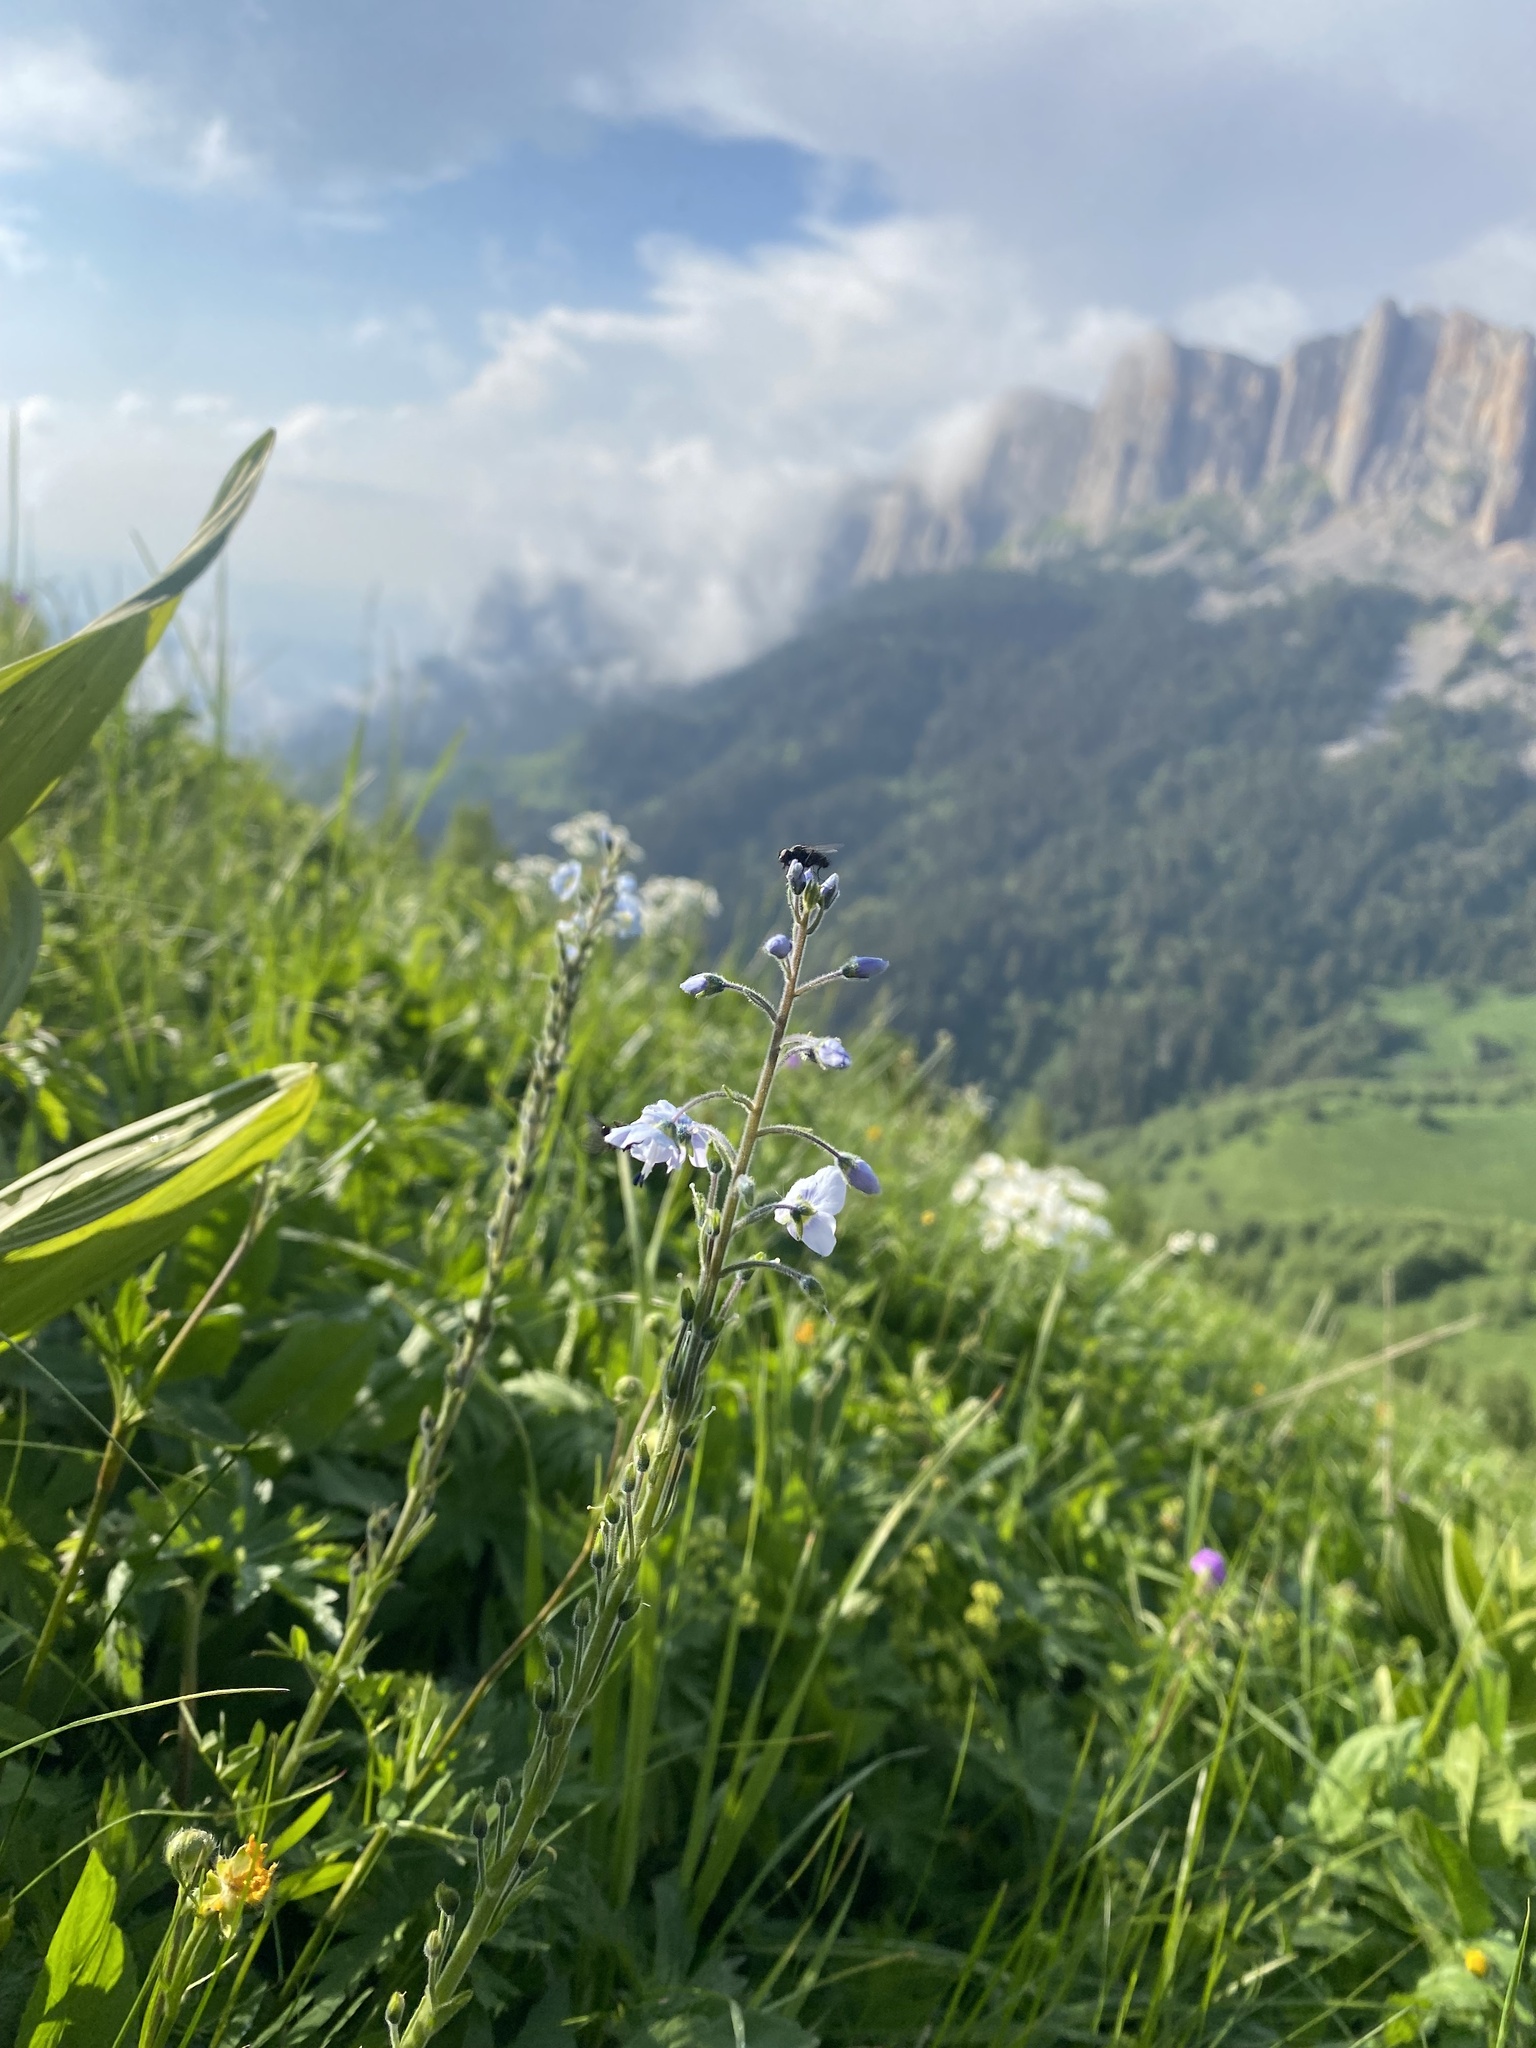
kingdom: Plantae
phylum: Tracheophyta
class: Magnoliopsida
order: Lamiales
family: Plantaginaceae
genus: Veronica
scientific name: Veronica gentianoides
